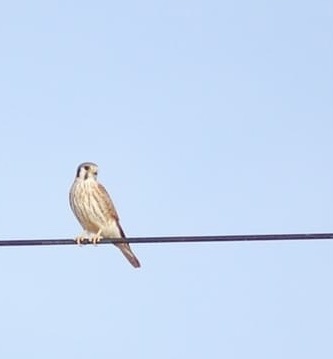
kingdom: Animalia
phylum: Chordata
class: Aves
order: Falconiformes
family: Falconidae
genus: Falco
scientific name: Falco sparverius
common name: American kestrel
